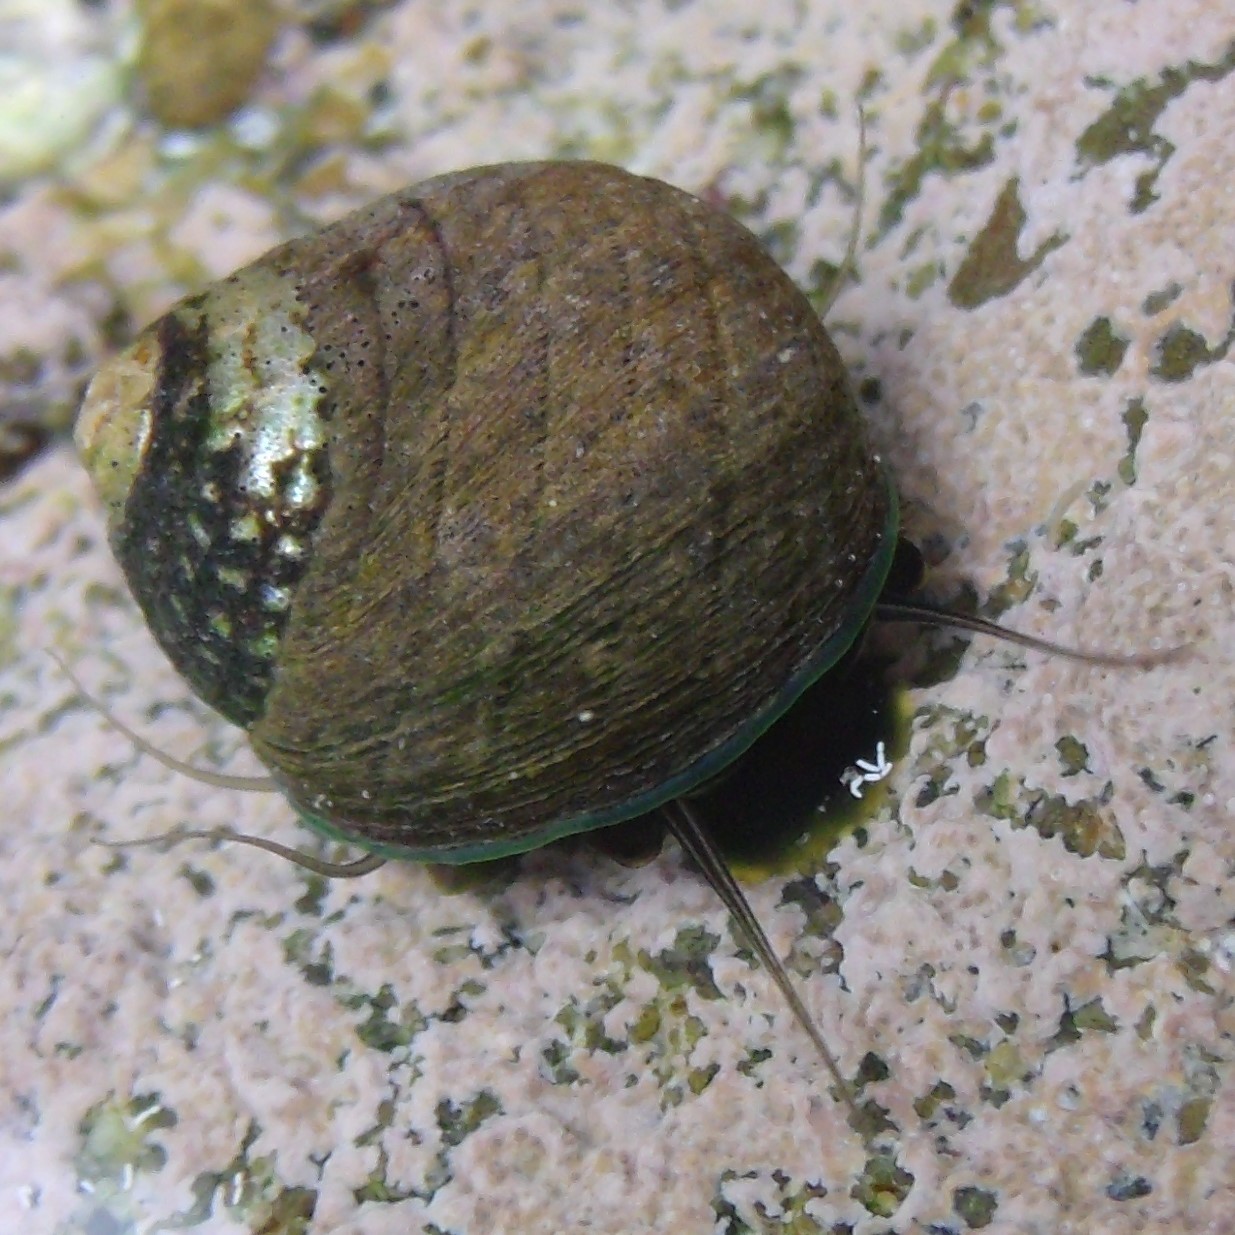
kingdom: Animalia
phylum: Mollusca
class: Gastropoda
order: Trochida
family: Trochidae
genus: Diloma
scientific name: Diloma aethiops
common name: Scorched monodont
